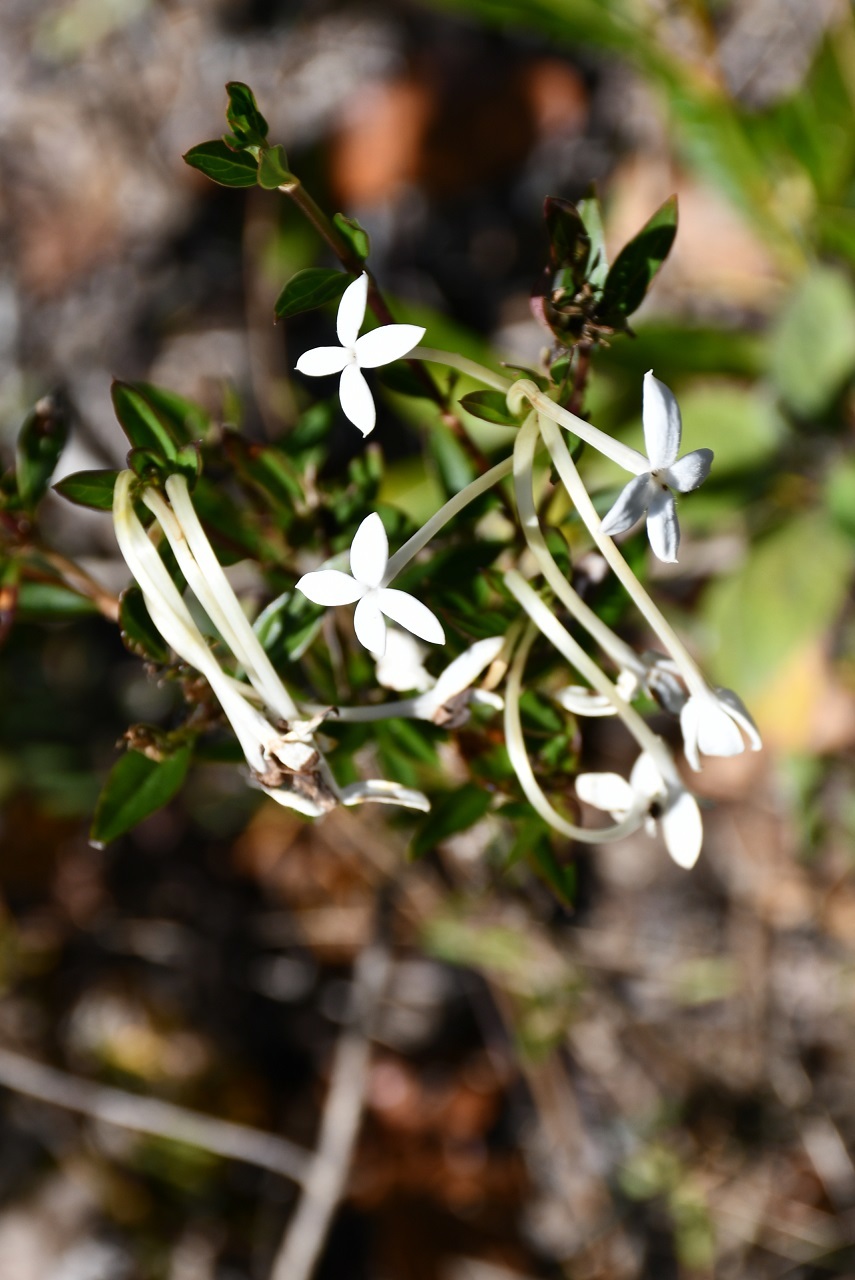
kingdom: Plantae
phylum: Tracheophyta
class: Magnoliopsida
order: Gentianales
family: Rubiaceae
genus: Bouvardia
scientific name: Bouvardia longiflora
